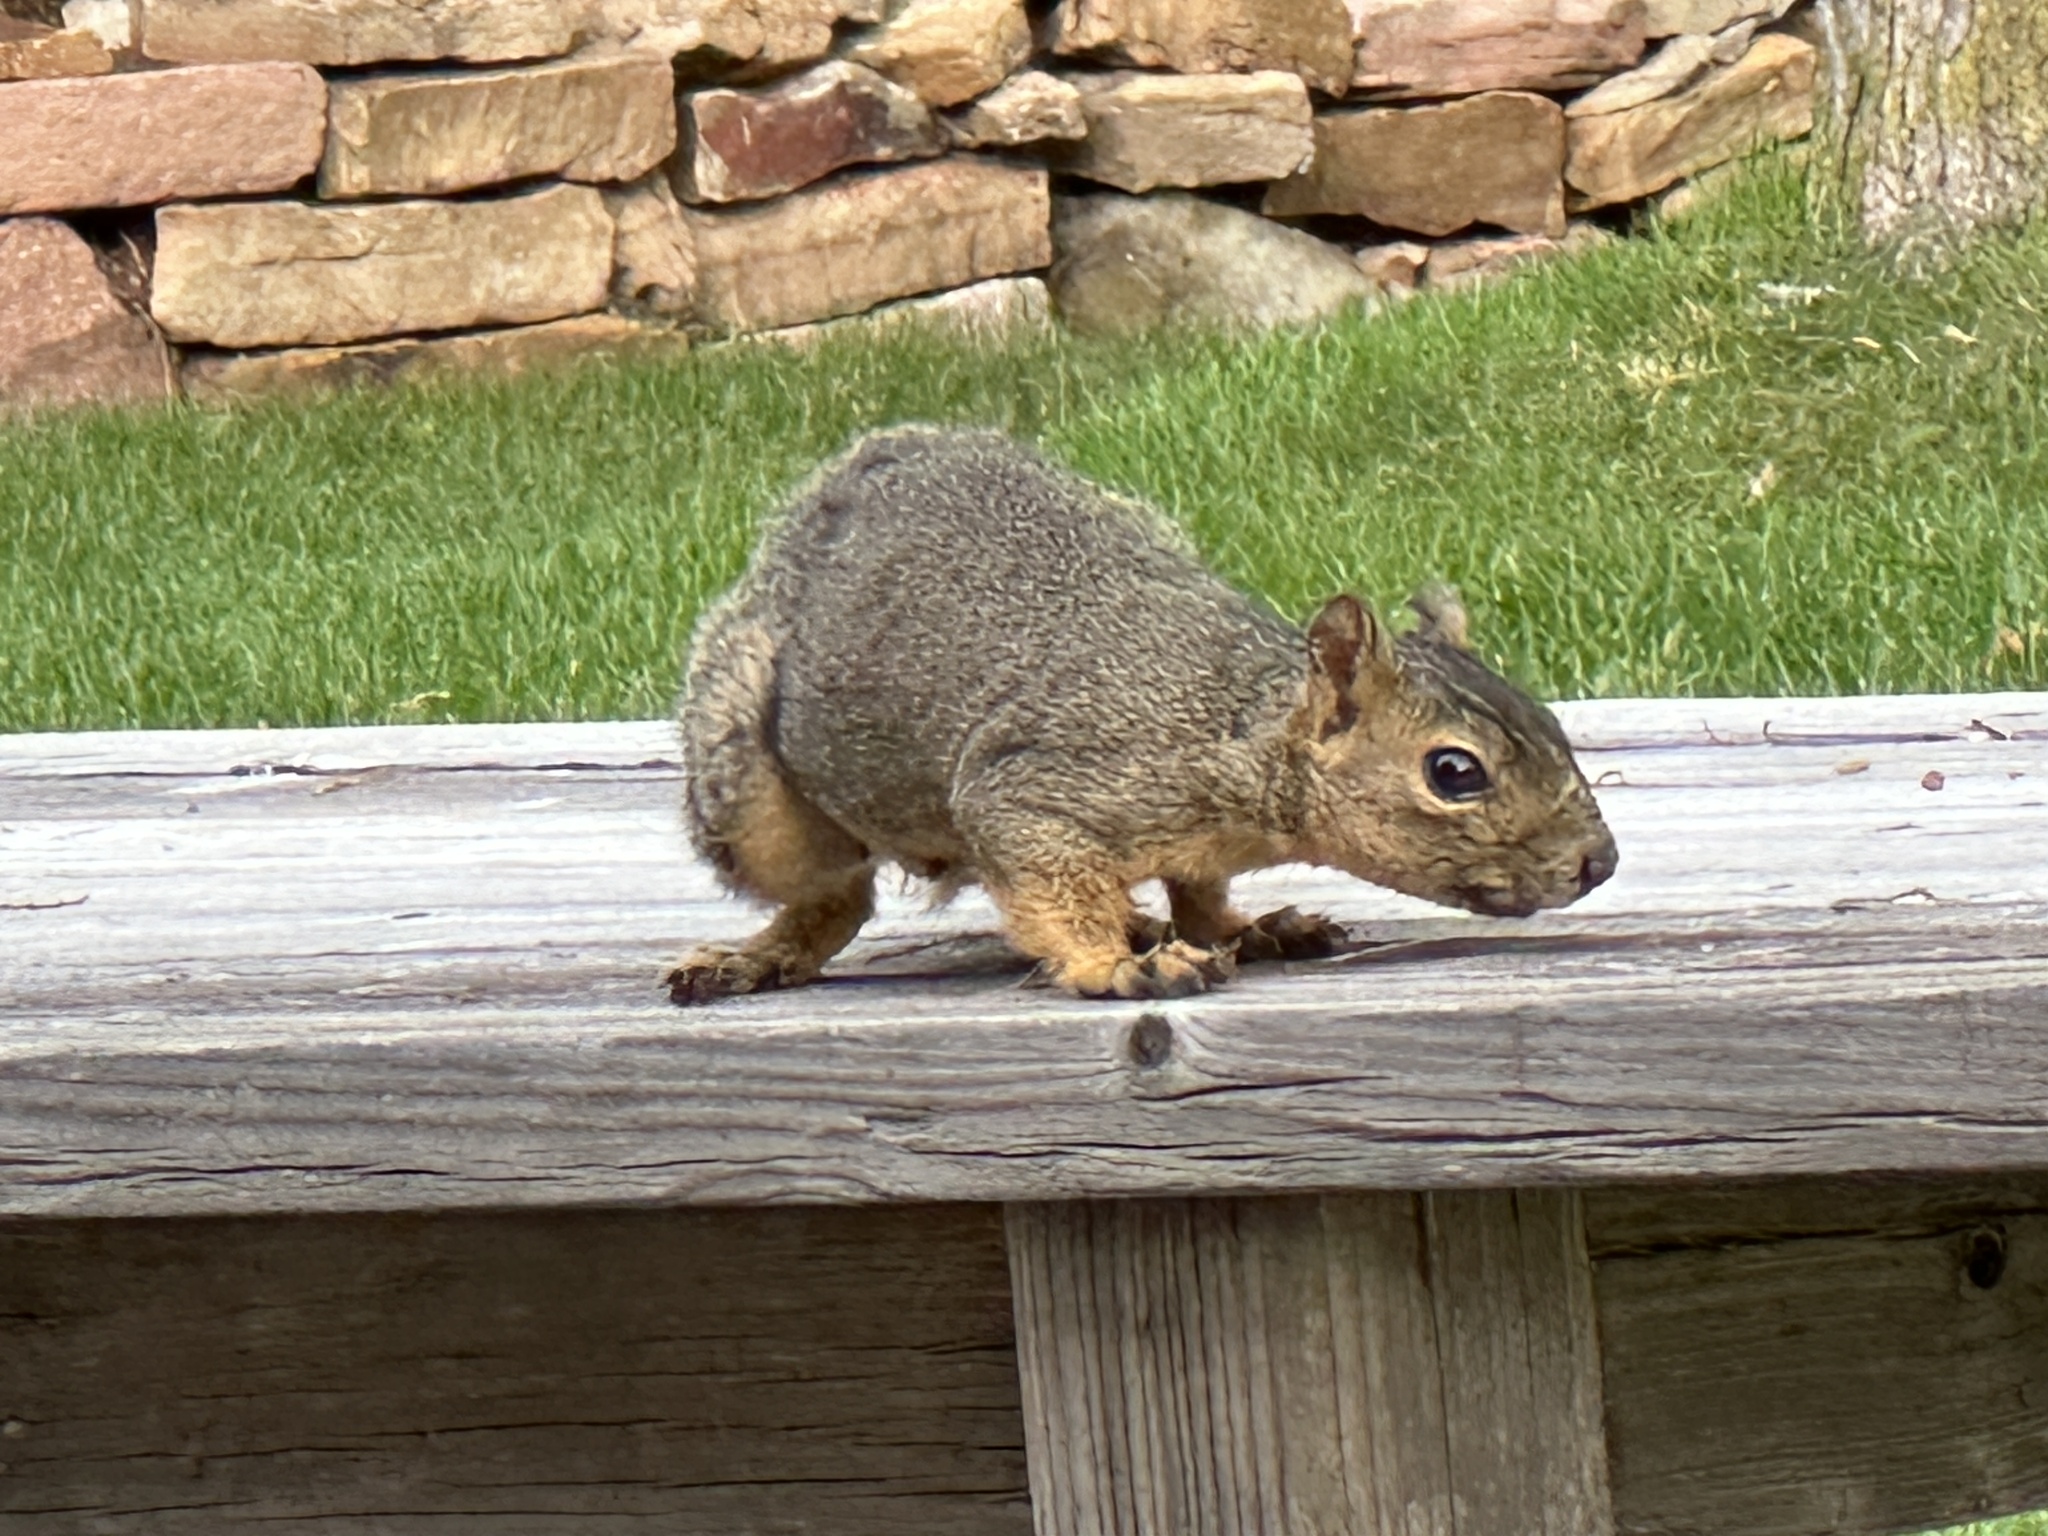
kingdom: Animalia
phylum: Chordata
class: Mammalia
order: Rodentia
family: Sciuridae
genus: Sciurus
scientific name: Sciurus niger
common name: Fox squirrel
